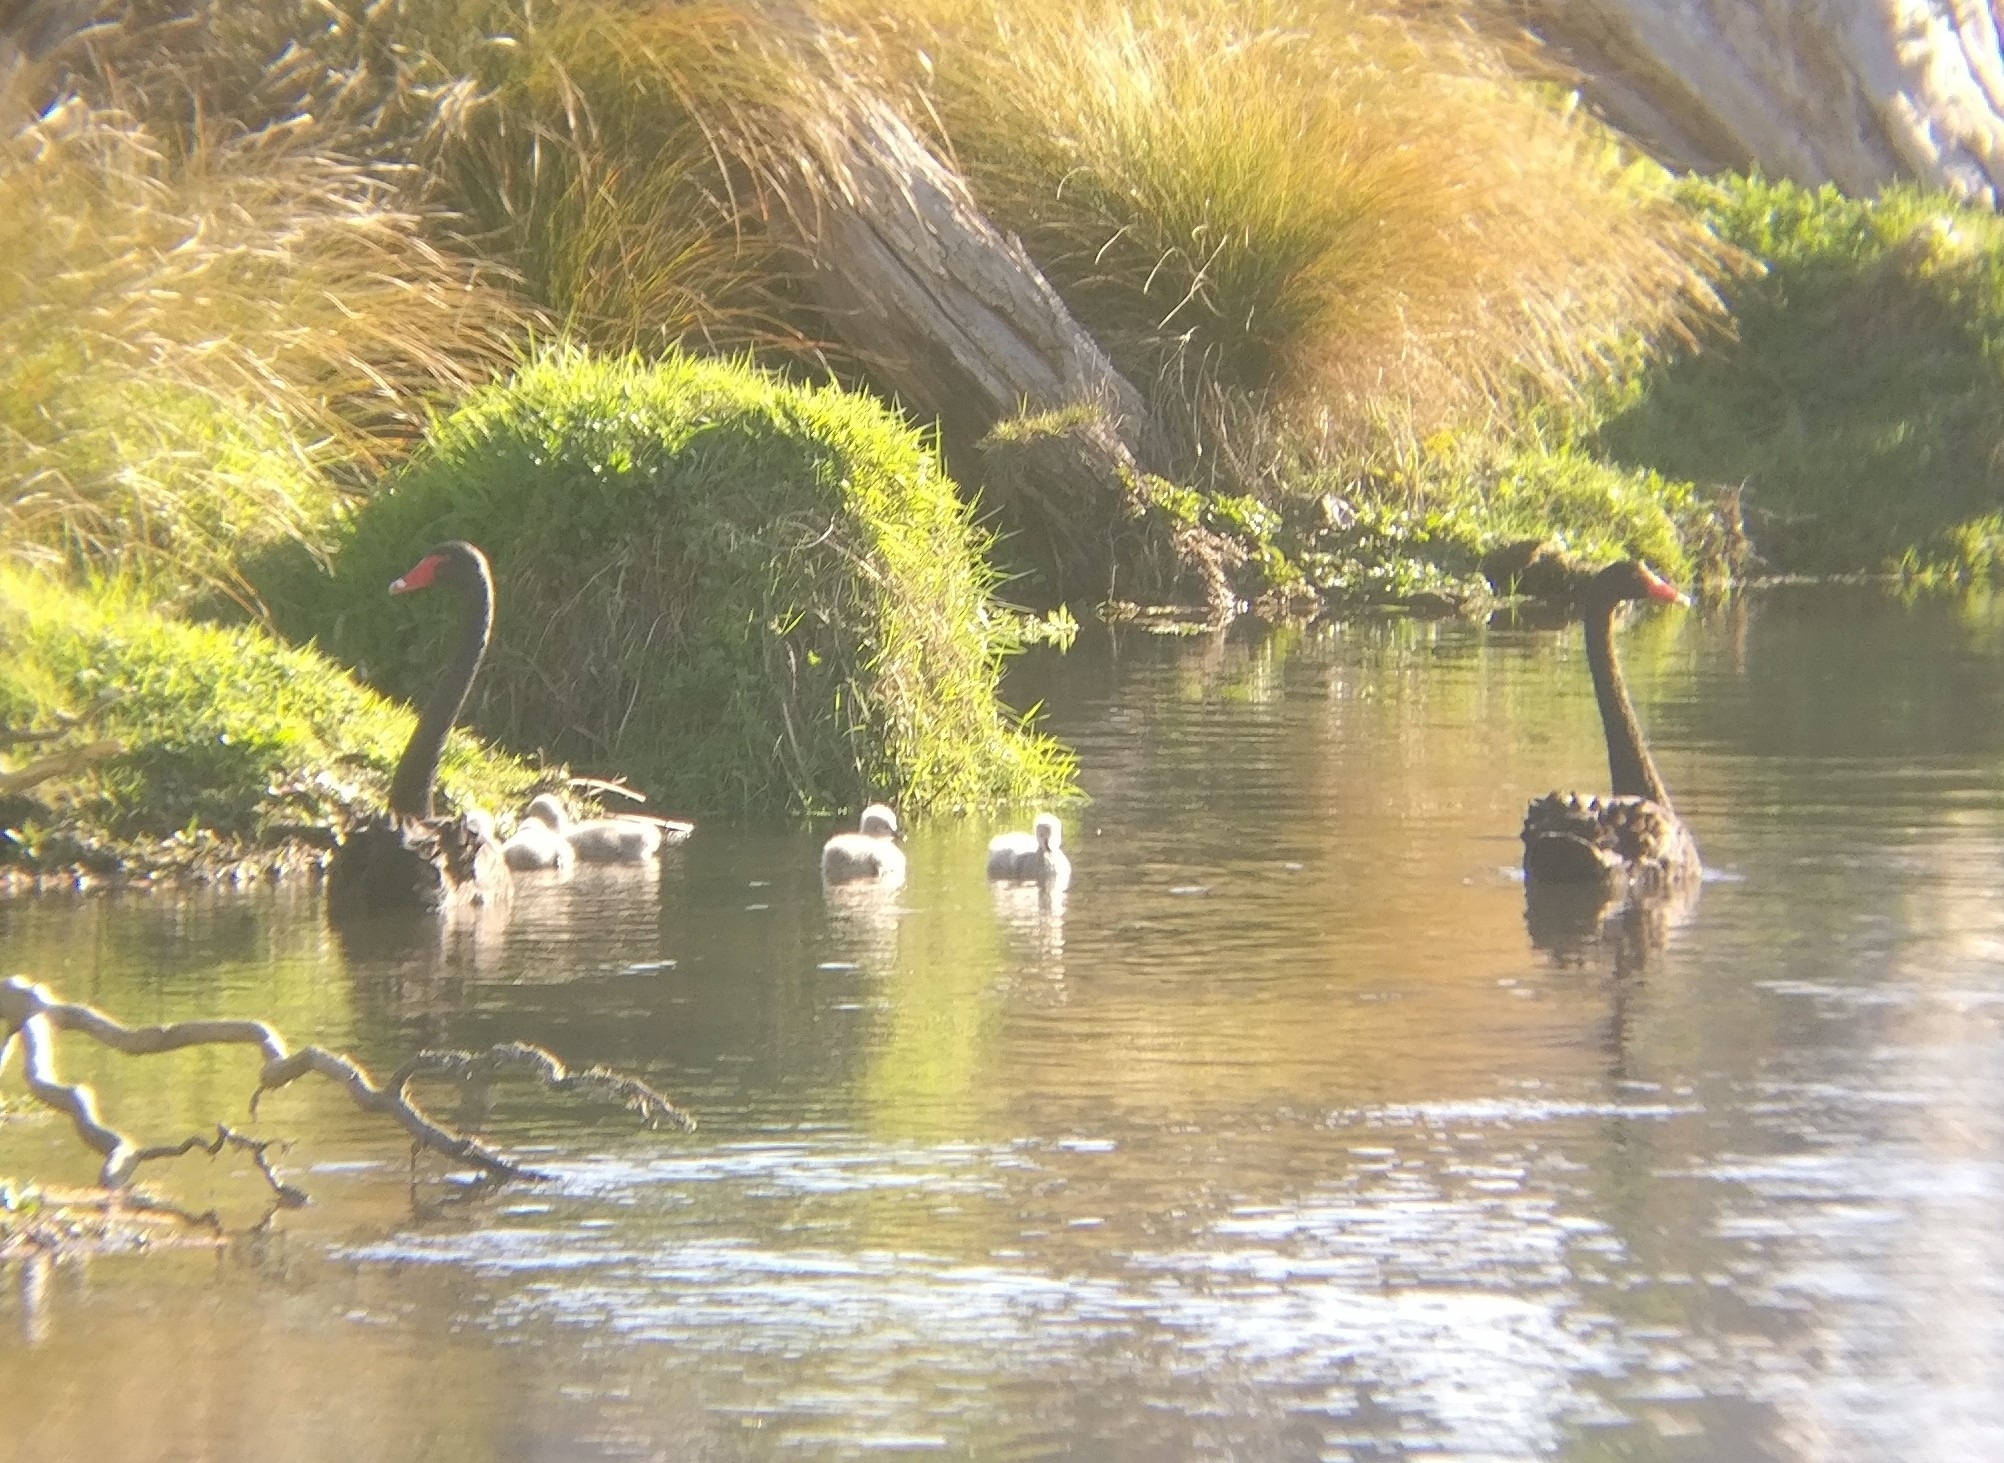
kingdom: Animalia
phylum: Chordata
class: Aves
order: Anseriformes
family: Anatidae
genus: Cygnus
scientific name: Cygnus atratus
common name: Black swan
